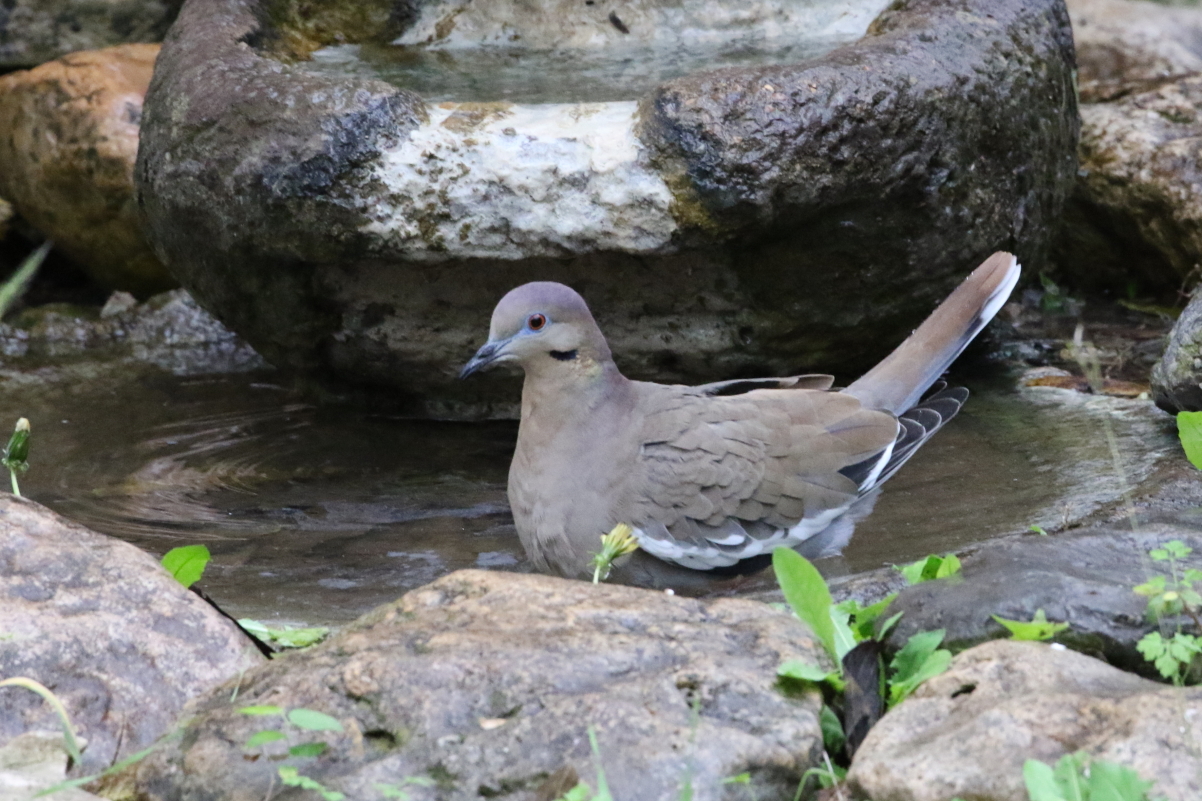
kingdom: Animalia
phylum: Chordata
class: Aves
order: Columbiformes
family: Columbidae
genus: Zenaida
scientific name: Zenaida asiatica
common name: White-winged dove
